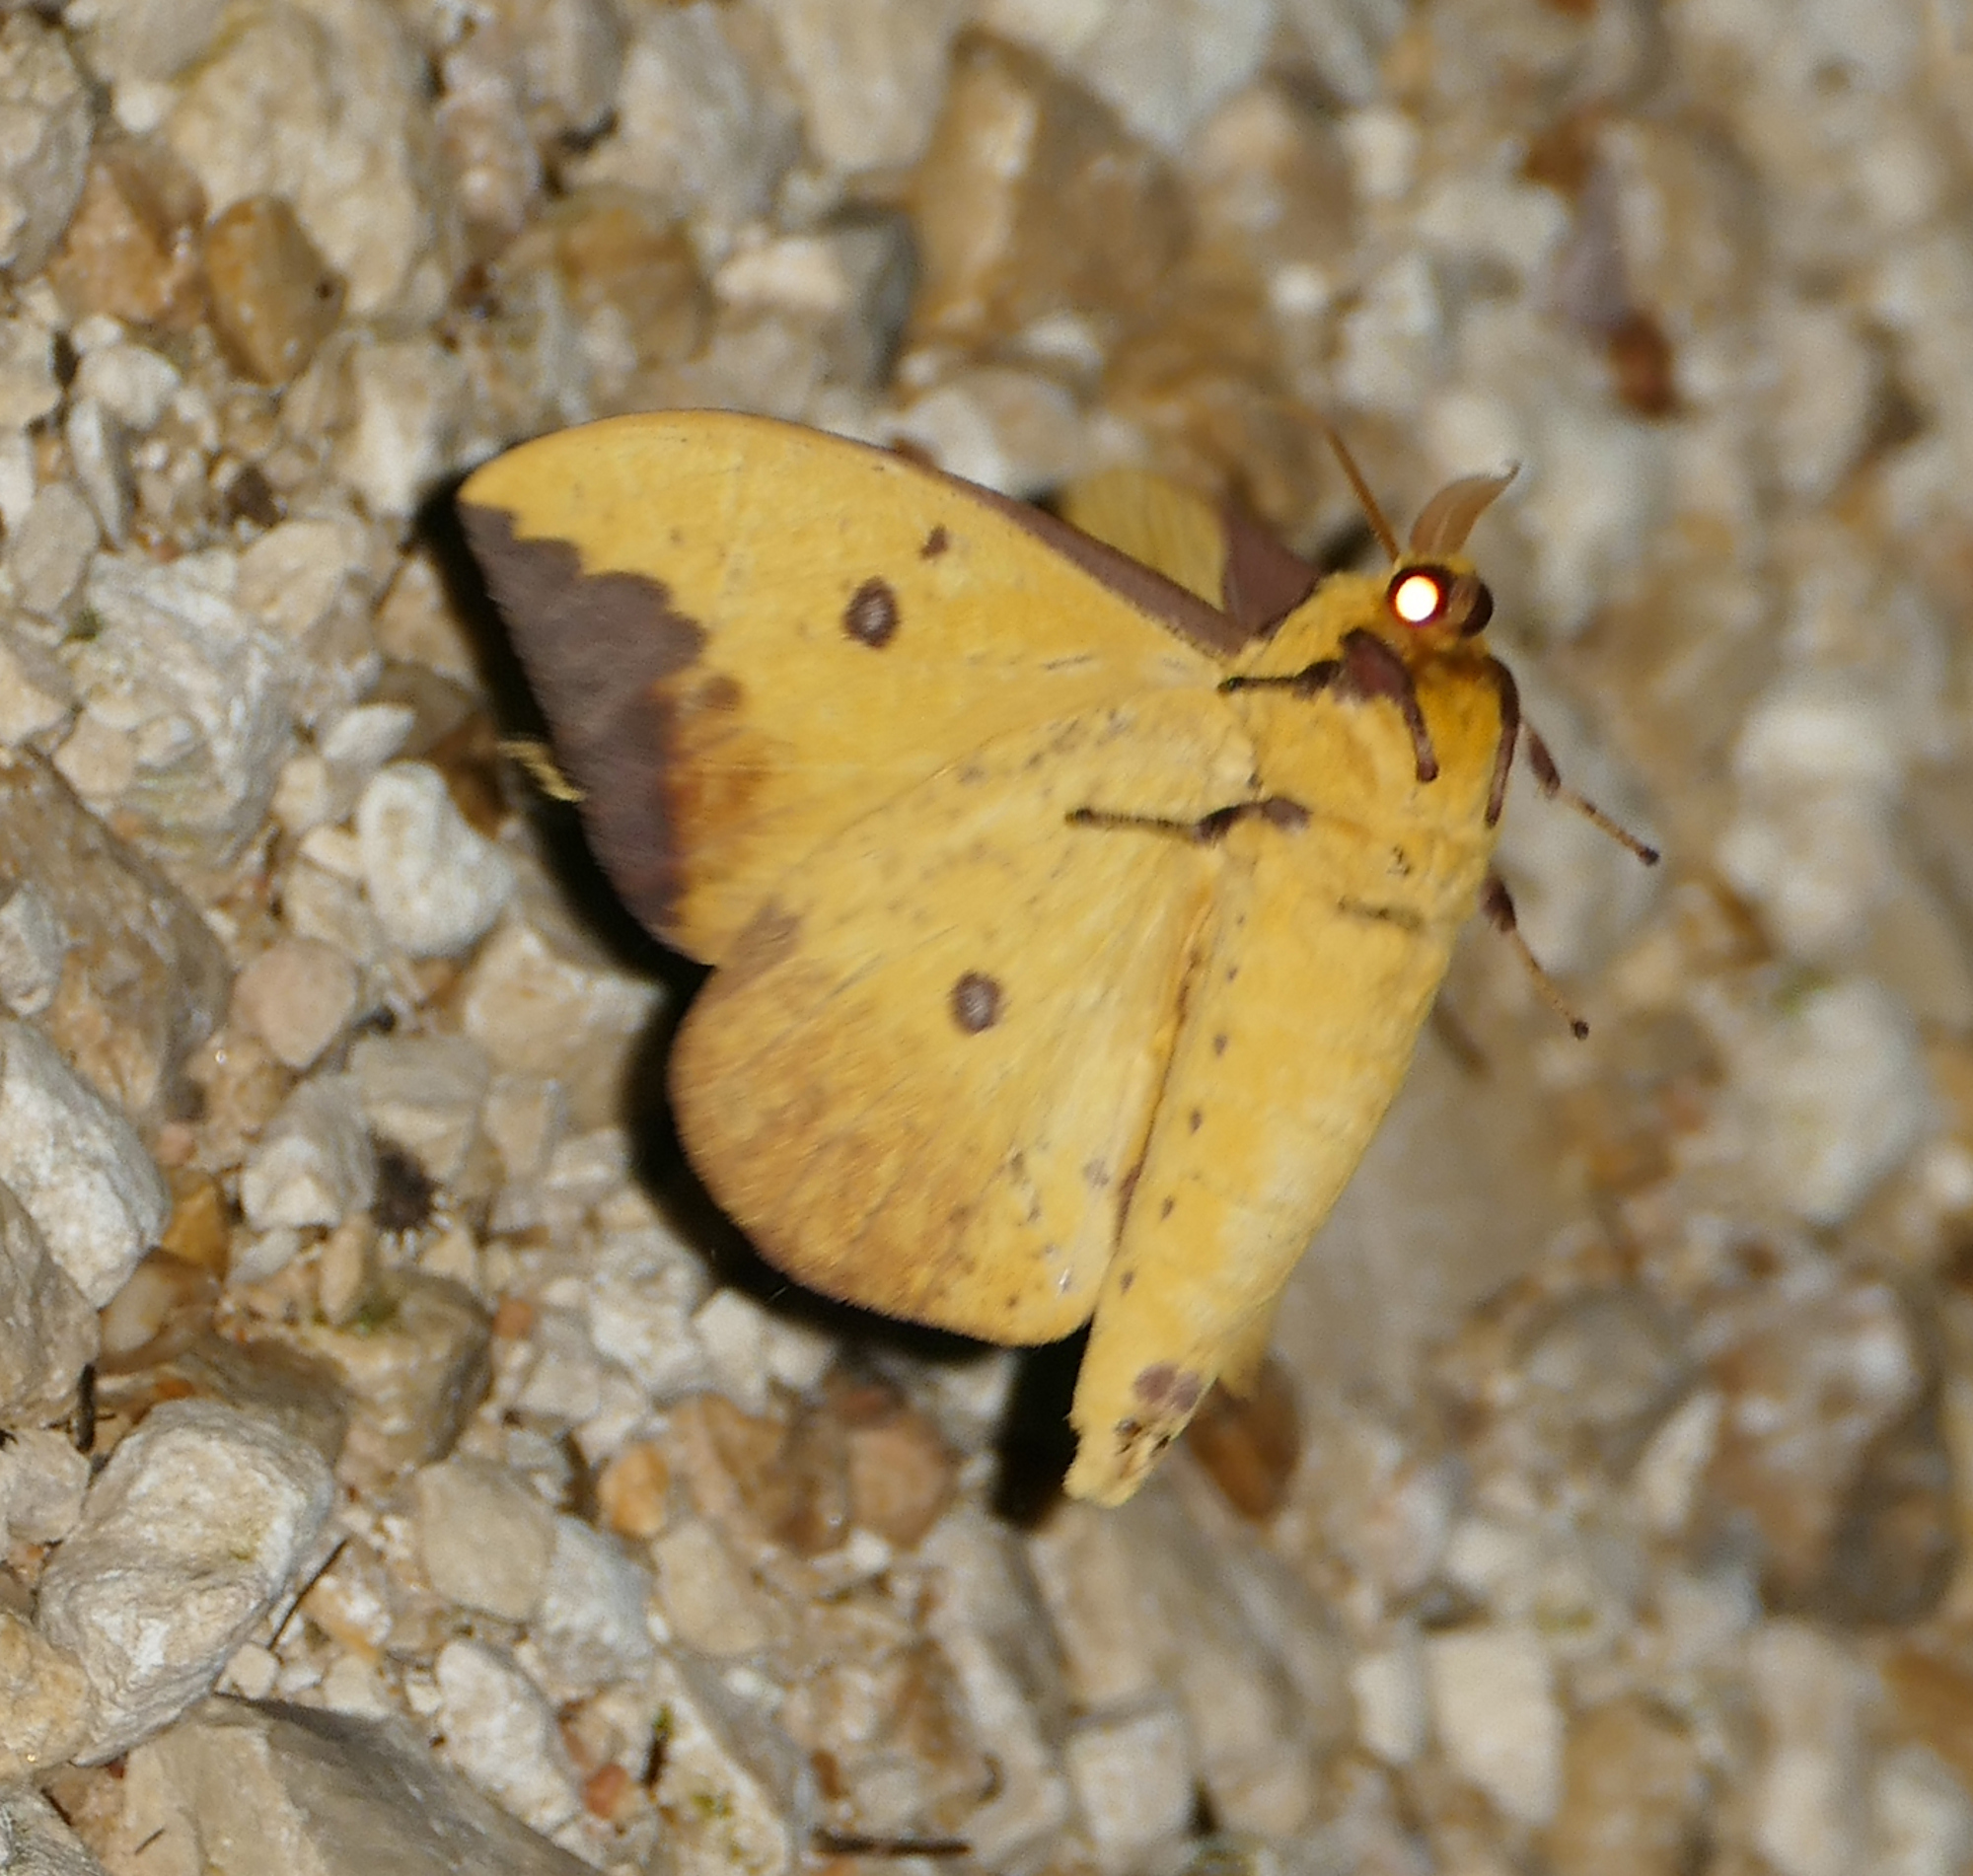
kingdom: Animalia
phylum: Arthropoda
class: Insecta
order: Lepidoptera
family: Saturniidae
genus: Eacles
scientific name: Eacles imperialis
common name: Imperial moth
